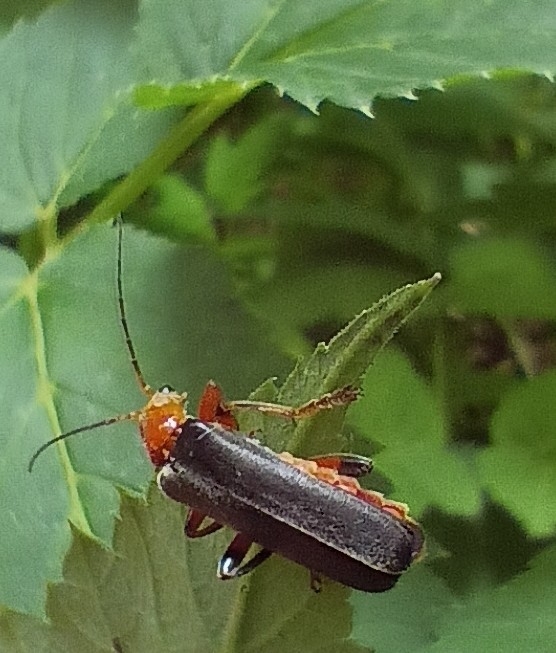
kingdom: Animalia
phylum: Arthropoda
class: Insecta
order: Coleoptera
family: Cantharidae
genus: Cantharis
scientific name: Cantharis livida
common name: Livid soldier beetle
